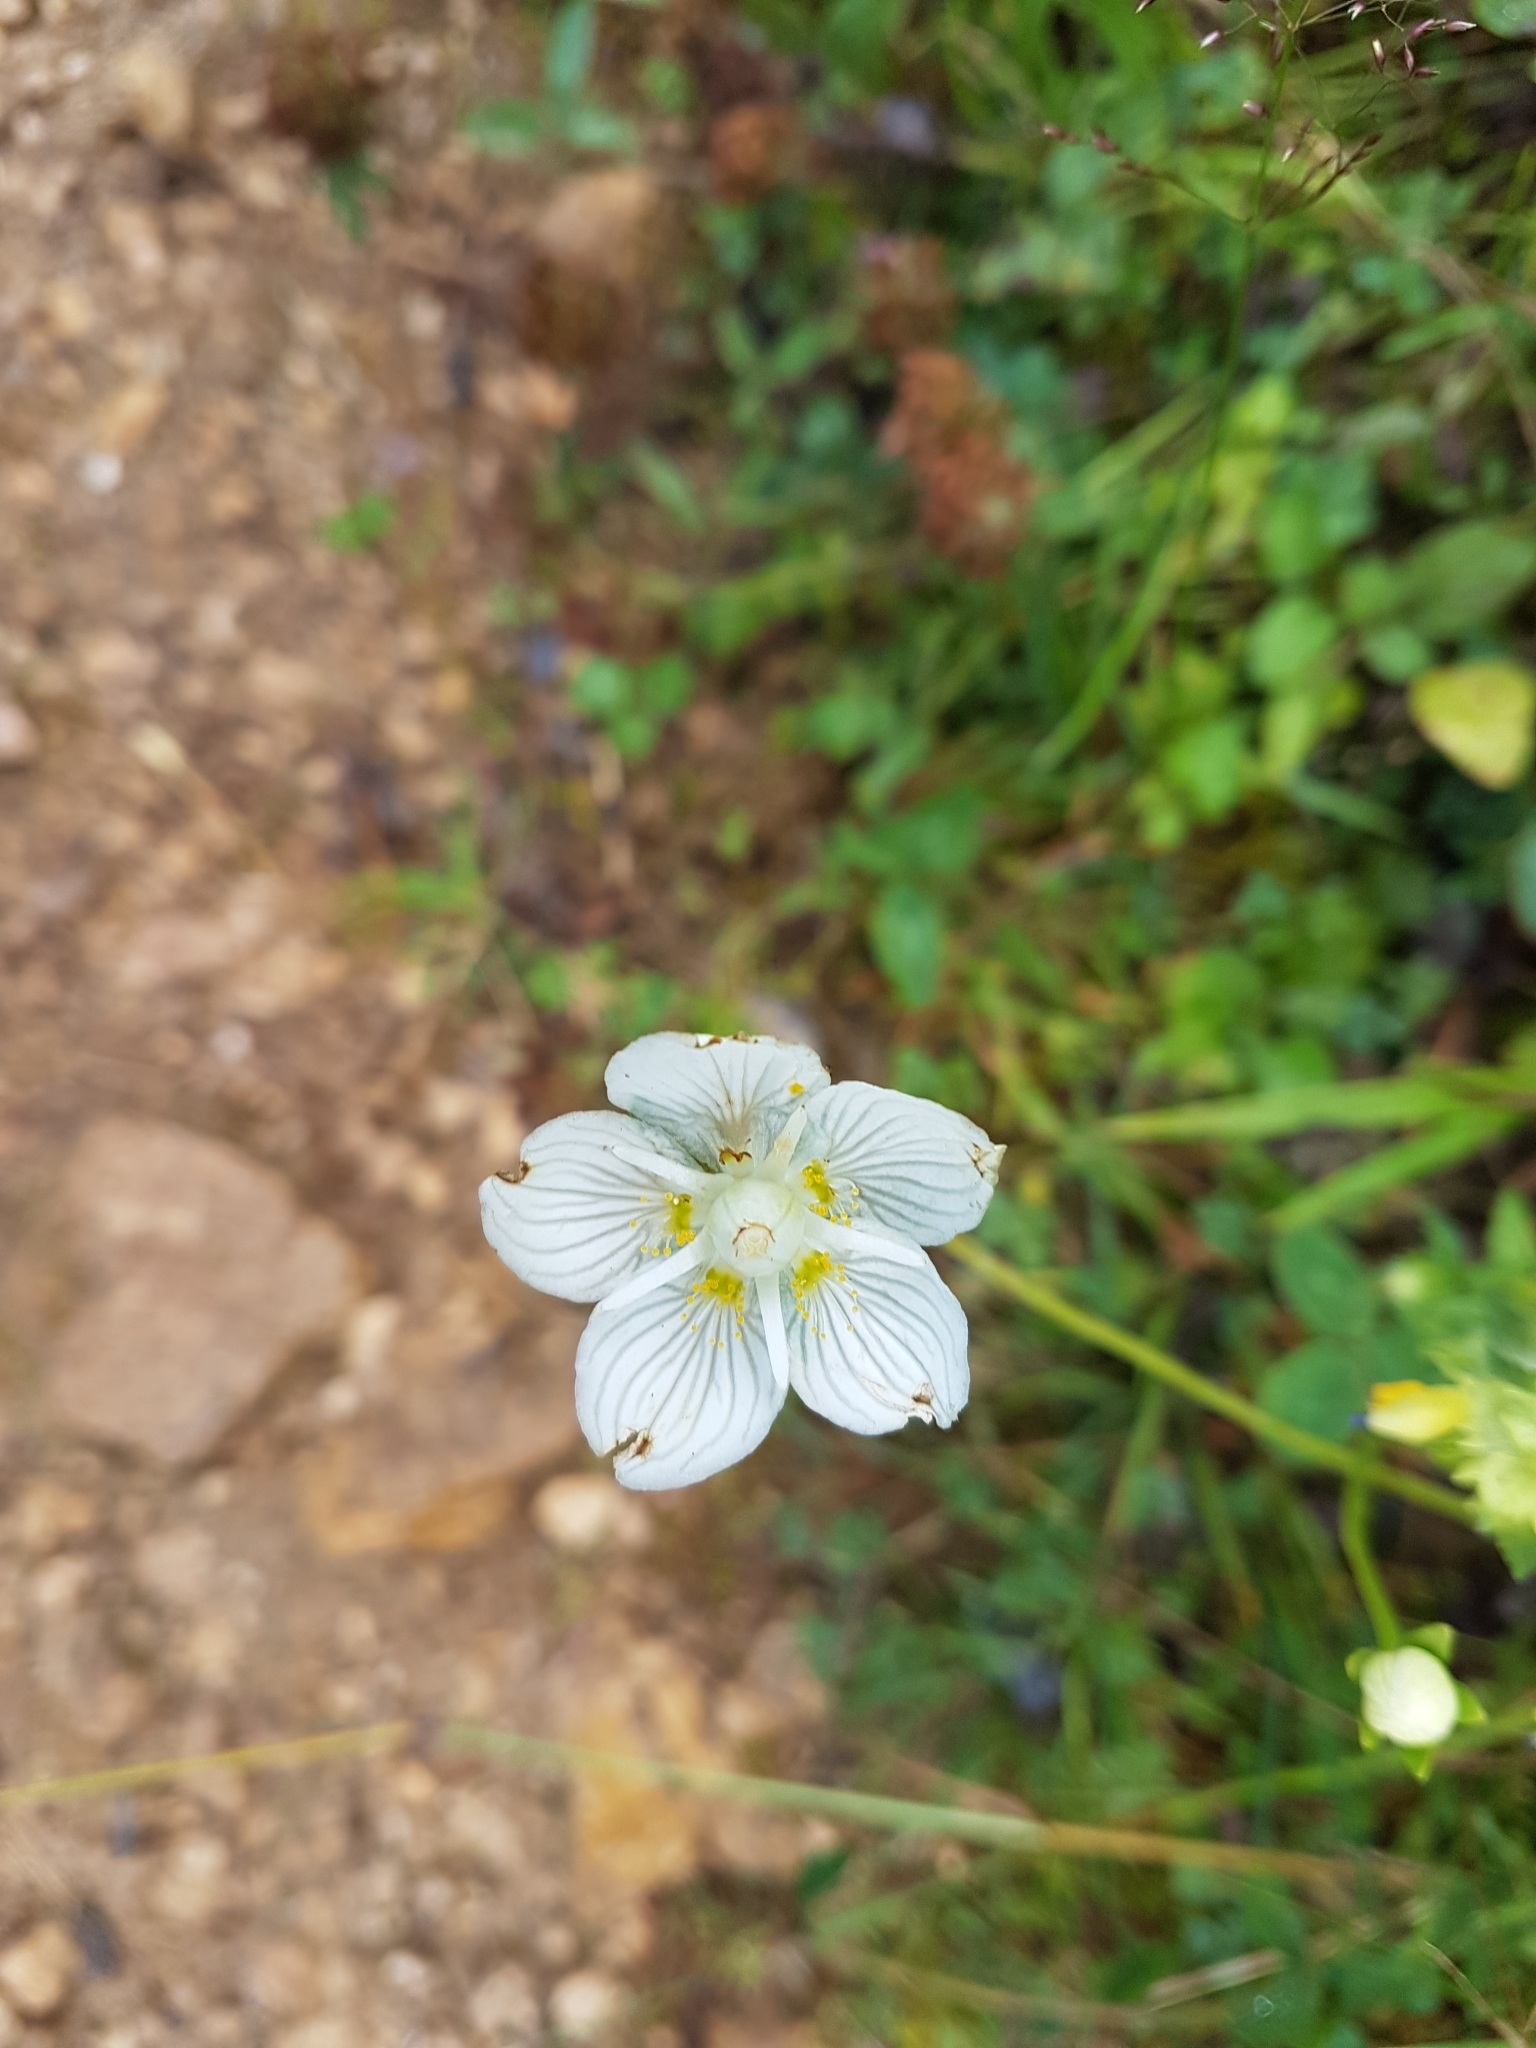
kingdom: Plantae
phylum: Tracheophyta
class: Magnoliopsida
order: Celastrales
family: Parnassiaceae
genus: Parnassia
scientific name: Parnassia palustris
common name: Grass-of-parnassus
